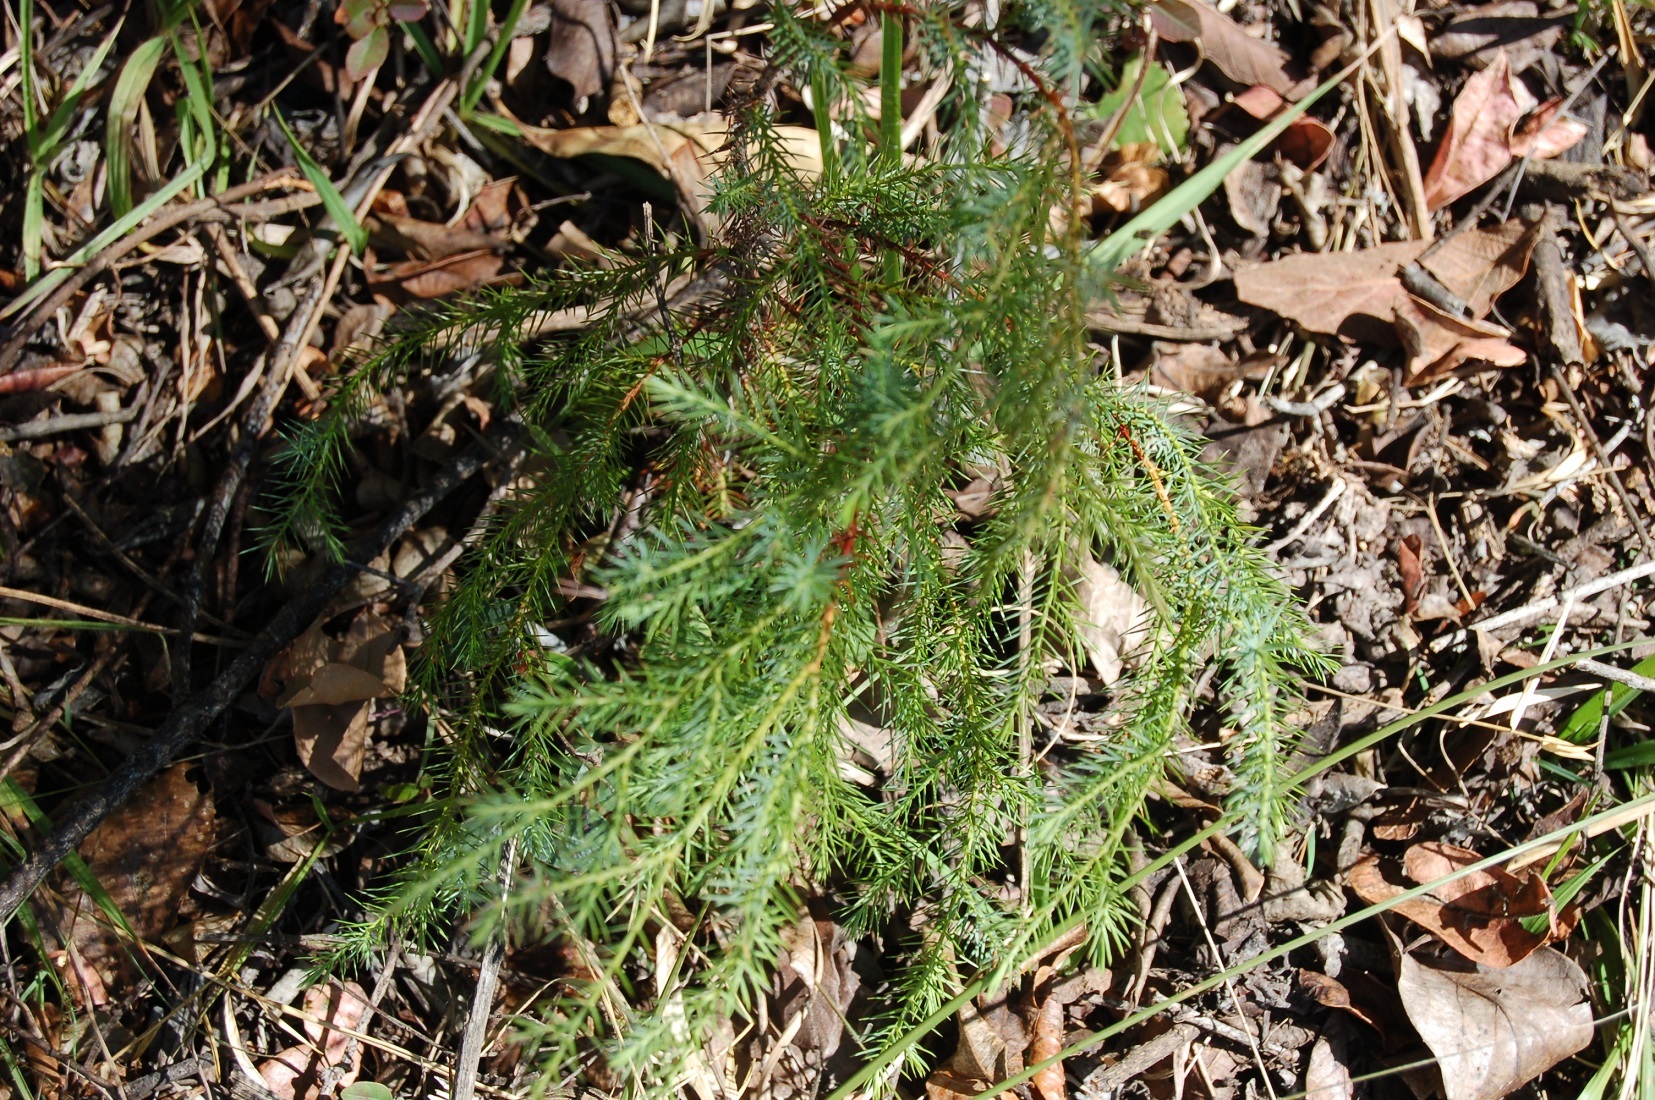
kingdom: Plantae
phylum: Tracheophyta
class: Pinopsida
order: Pinales
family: Cupressaceae
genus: Juniperus
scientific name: Juniperus gamboana
